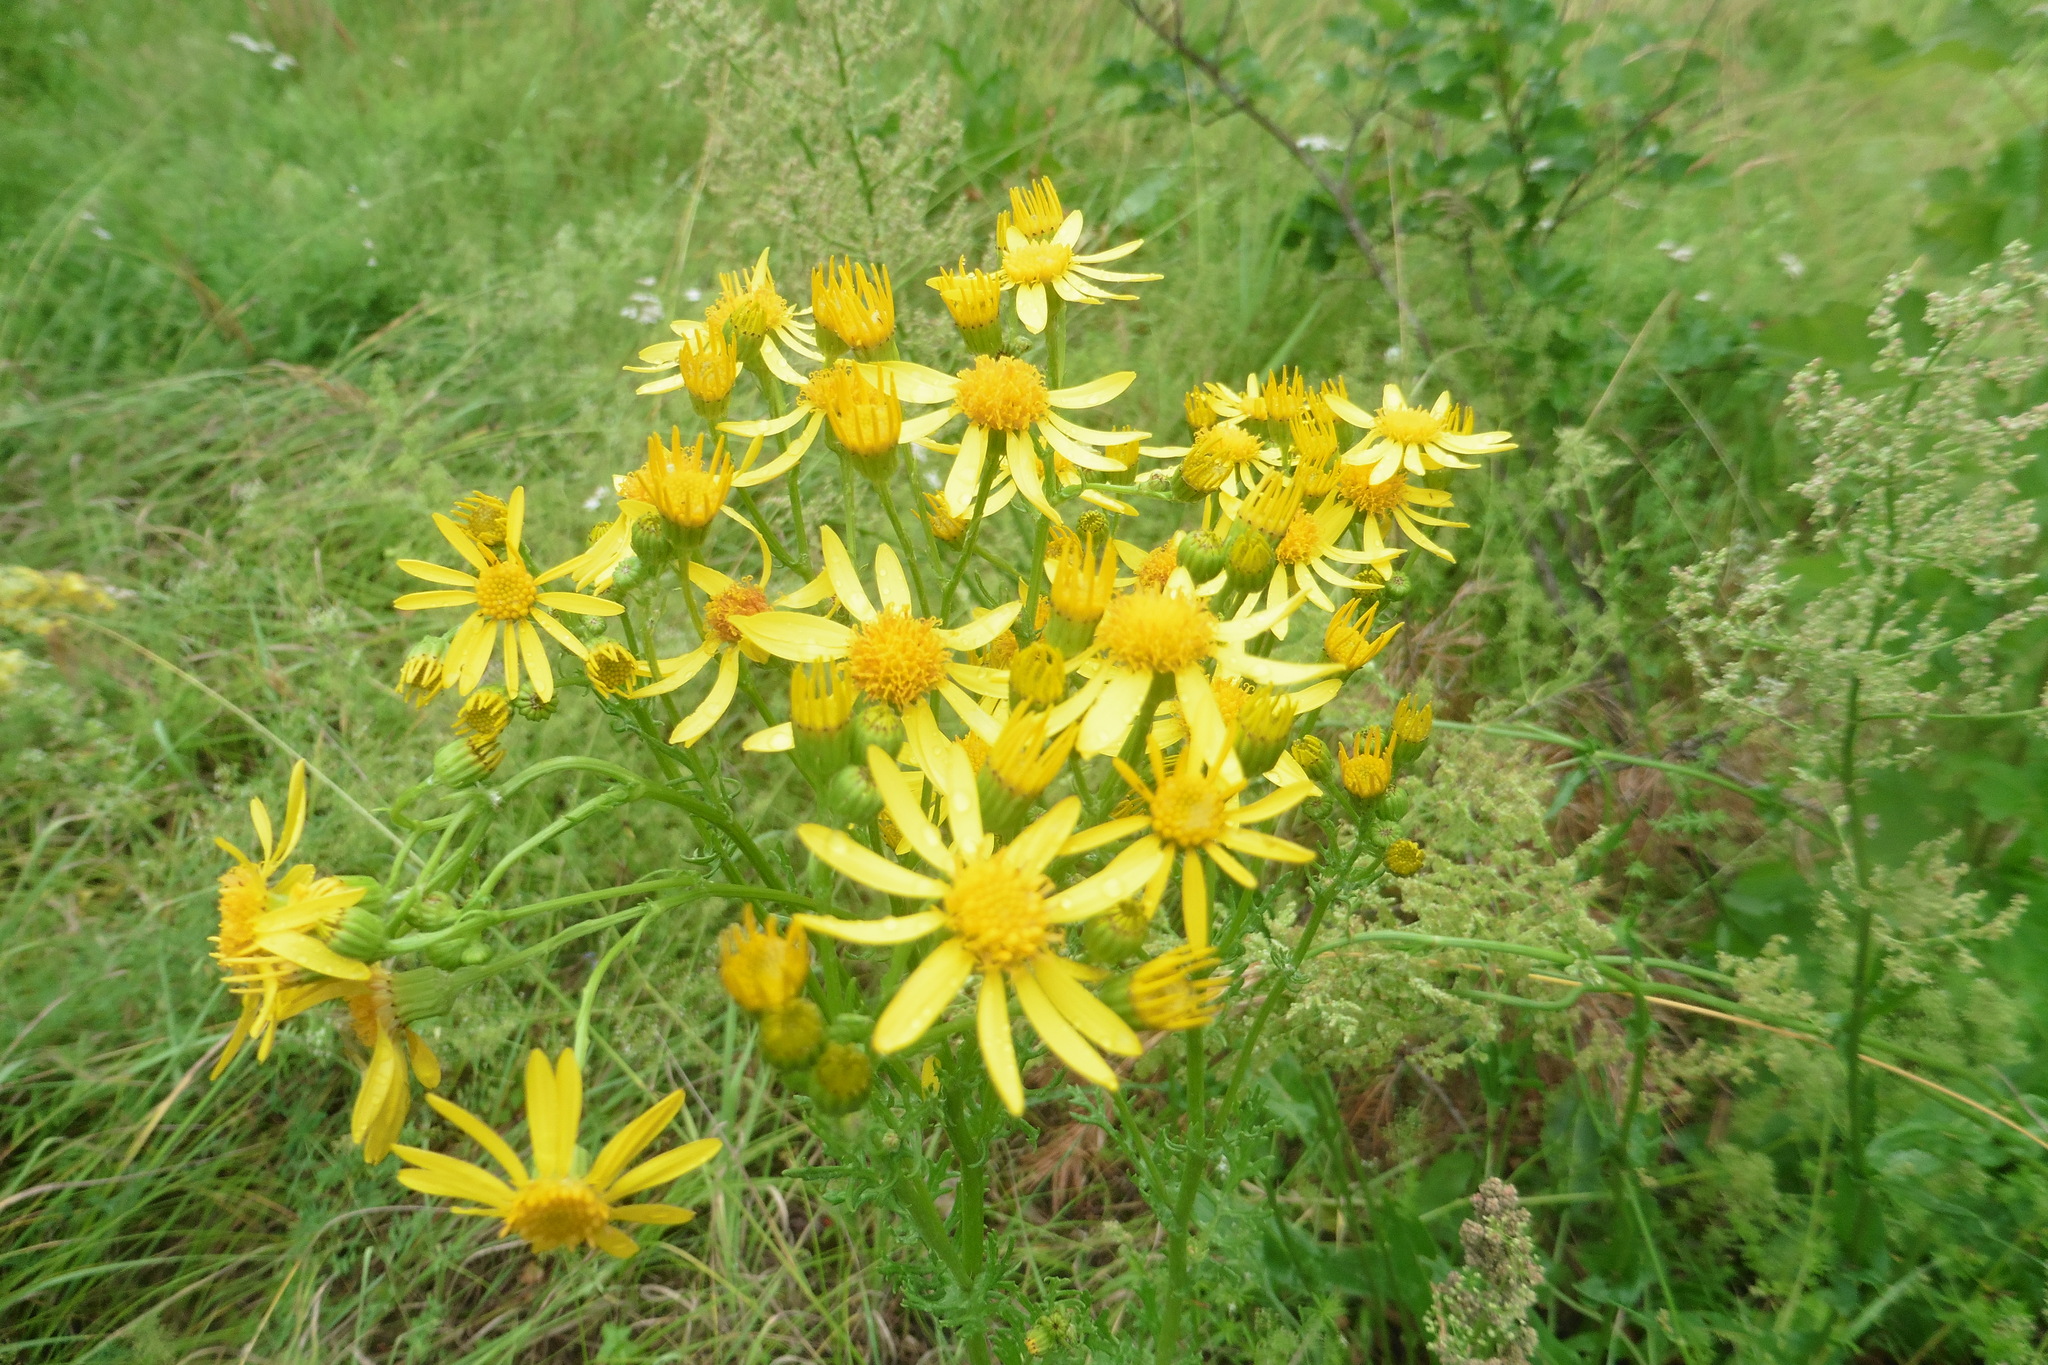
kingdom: Plantae
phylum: Tracheophyta
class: Magnoliopsida
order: Asterales
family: Asteraceae
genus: Jacobaea
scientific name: Jacobaea vulgaris
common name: Stinking willie
